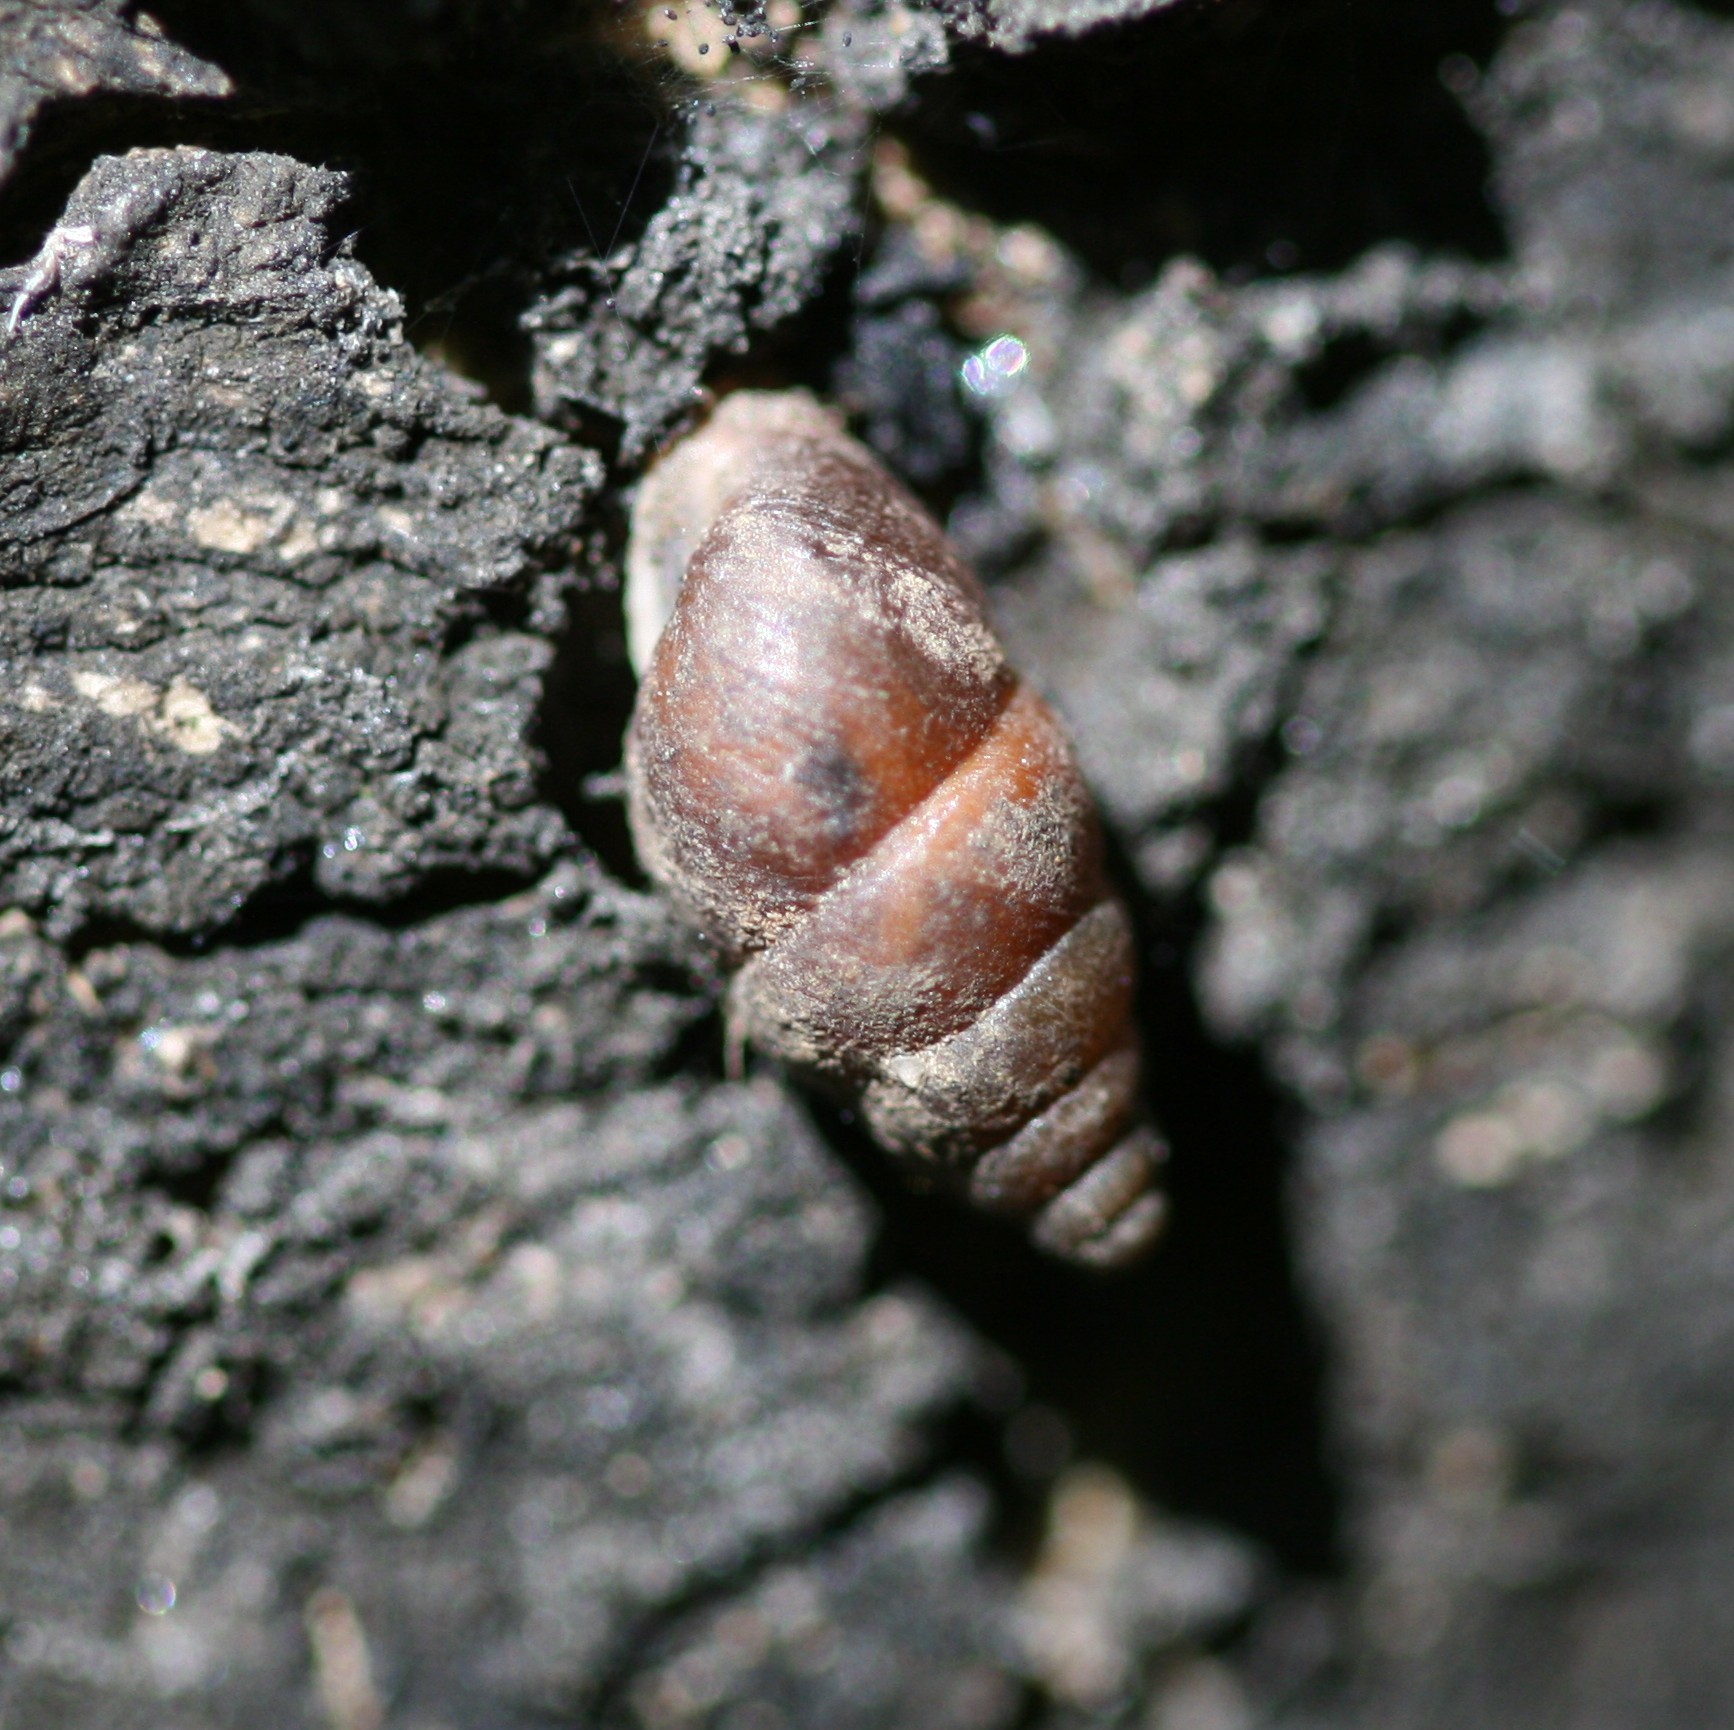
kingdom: Animalia
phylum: Mollusca
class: Gastropoda
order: Stylommatophora
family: Enidae
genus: Merdigera
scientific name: Merdigera obscura
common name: Lesser bulin
